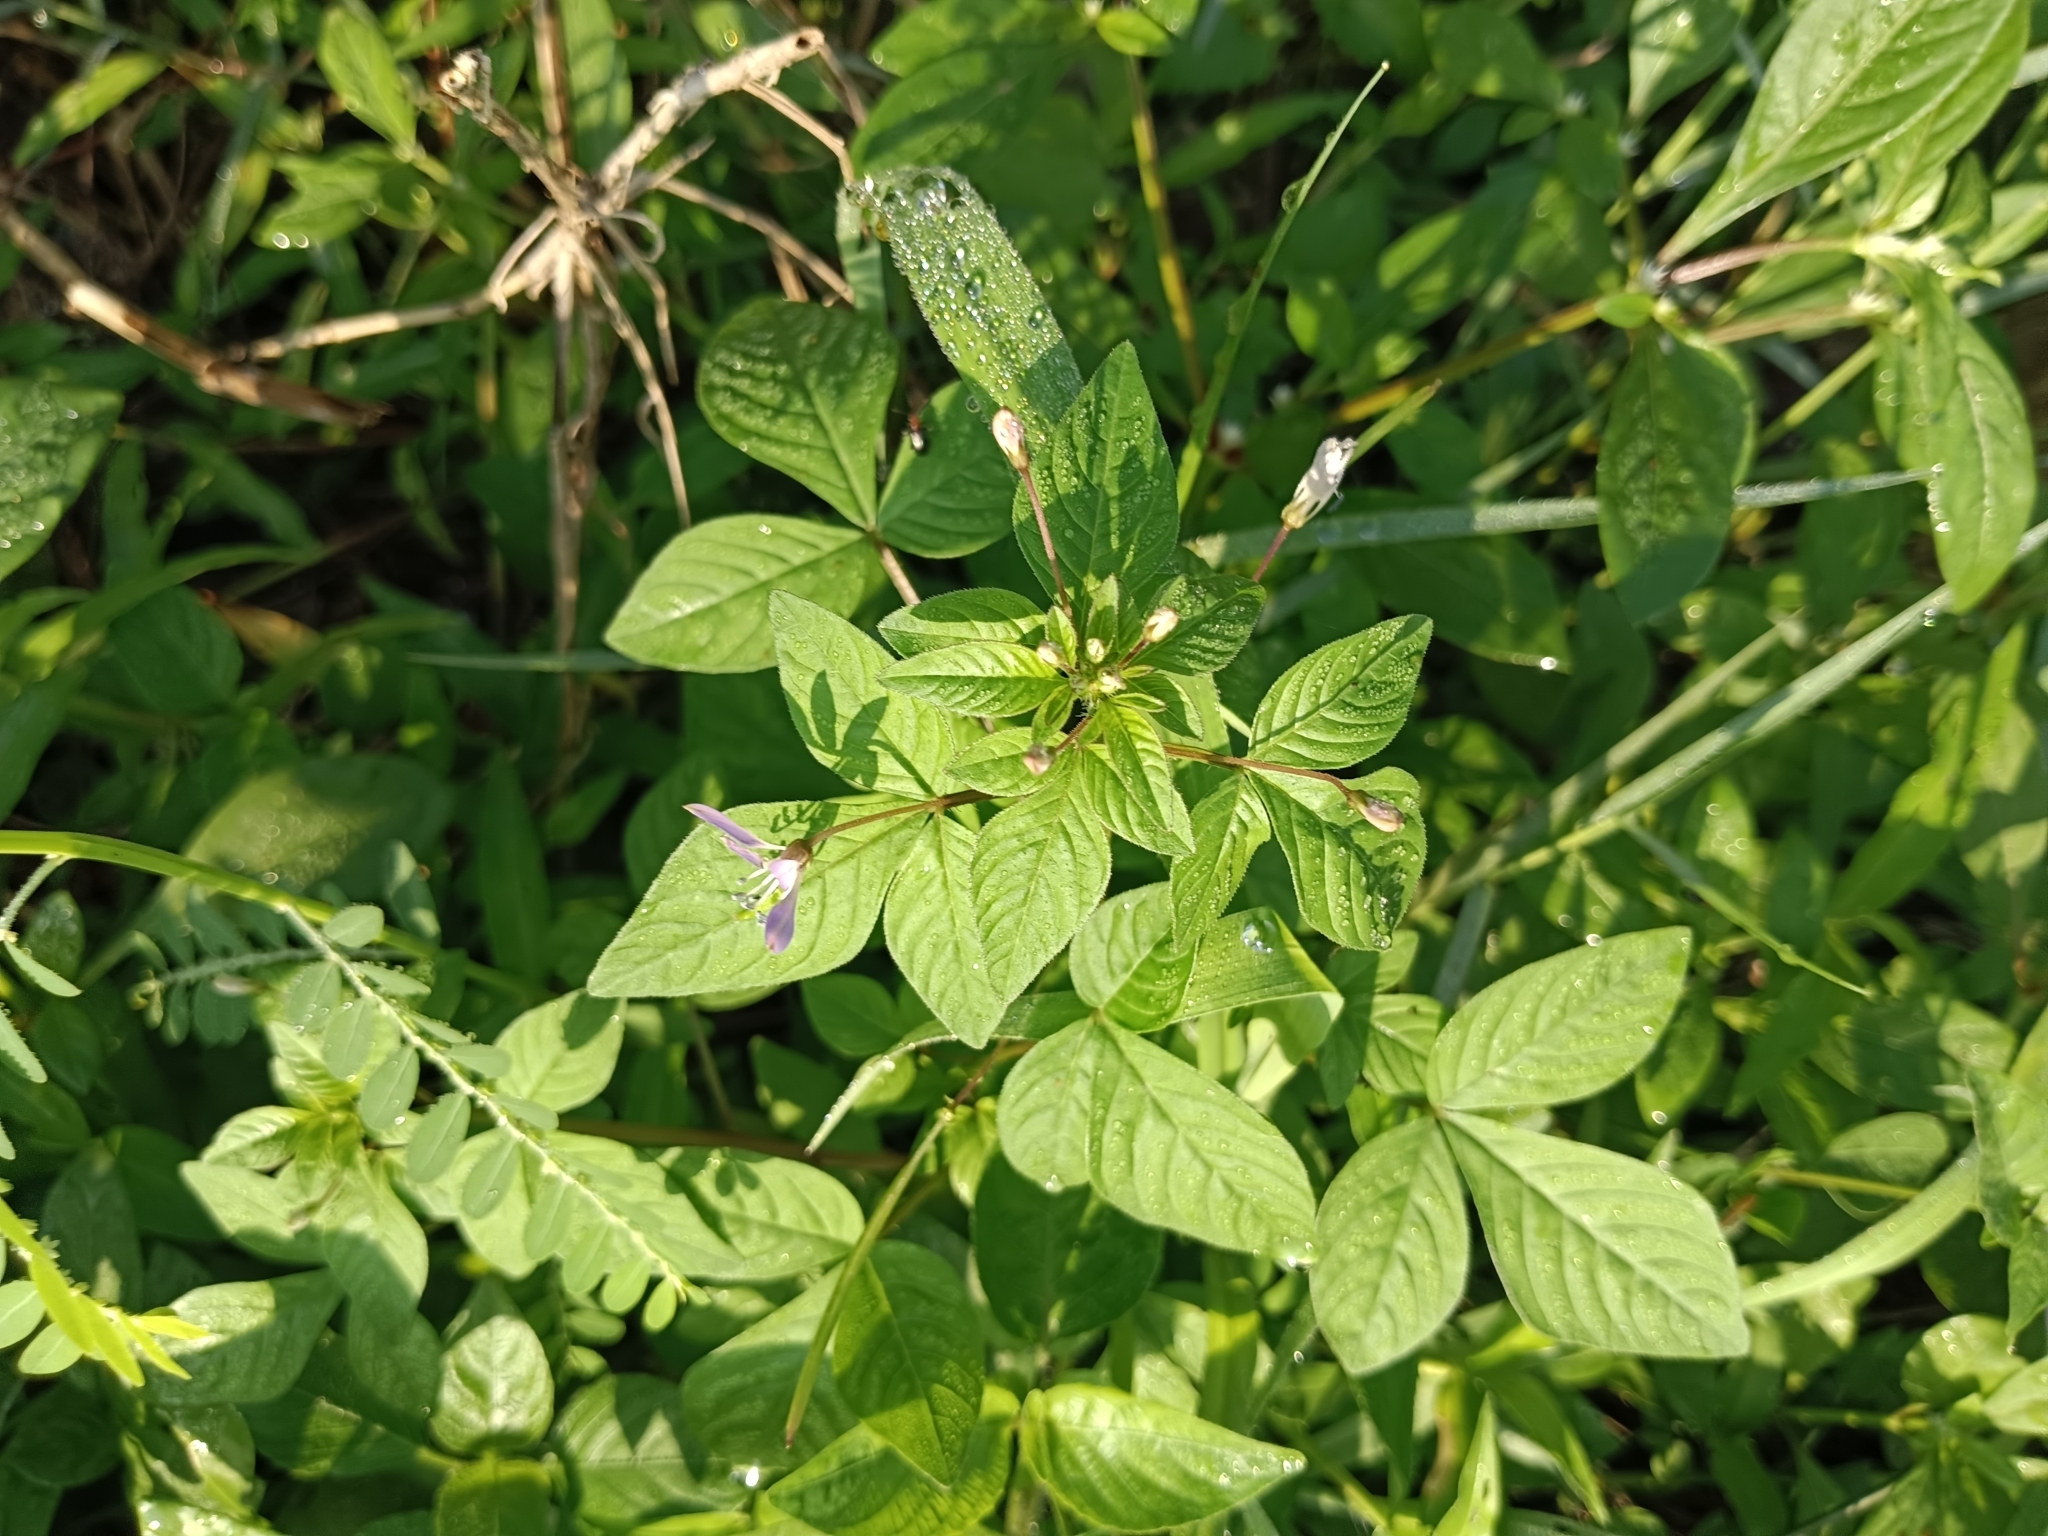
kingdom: Plantae
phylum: Tracheophyta
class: Magnoliopsida
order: Brassicales
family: Cleomaceae
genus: Sieruela
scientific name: Sieruela rutidosperma
